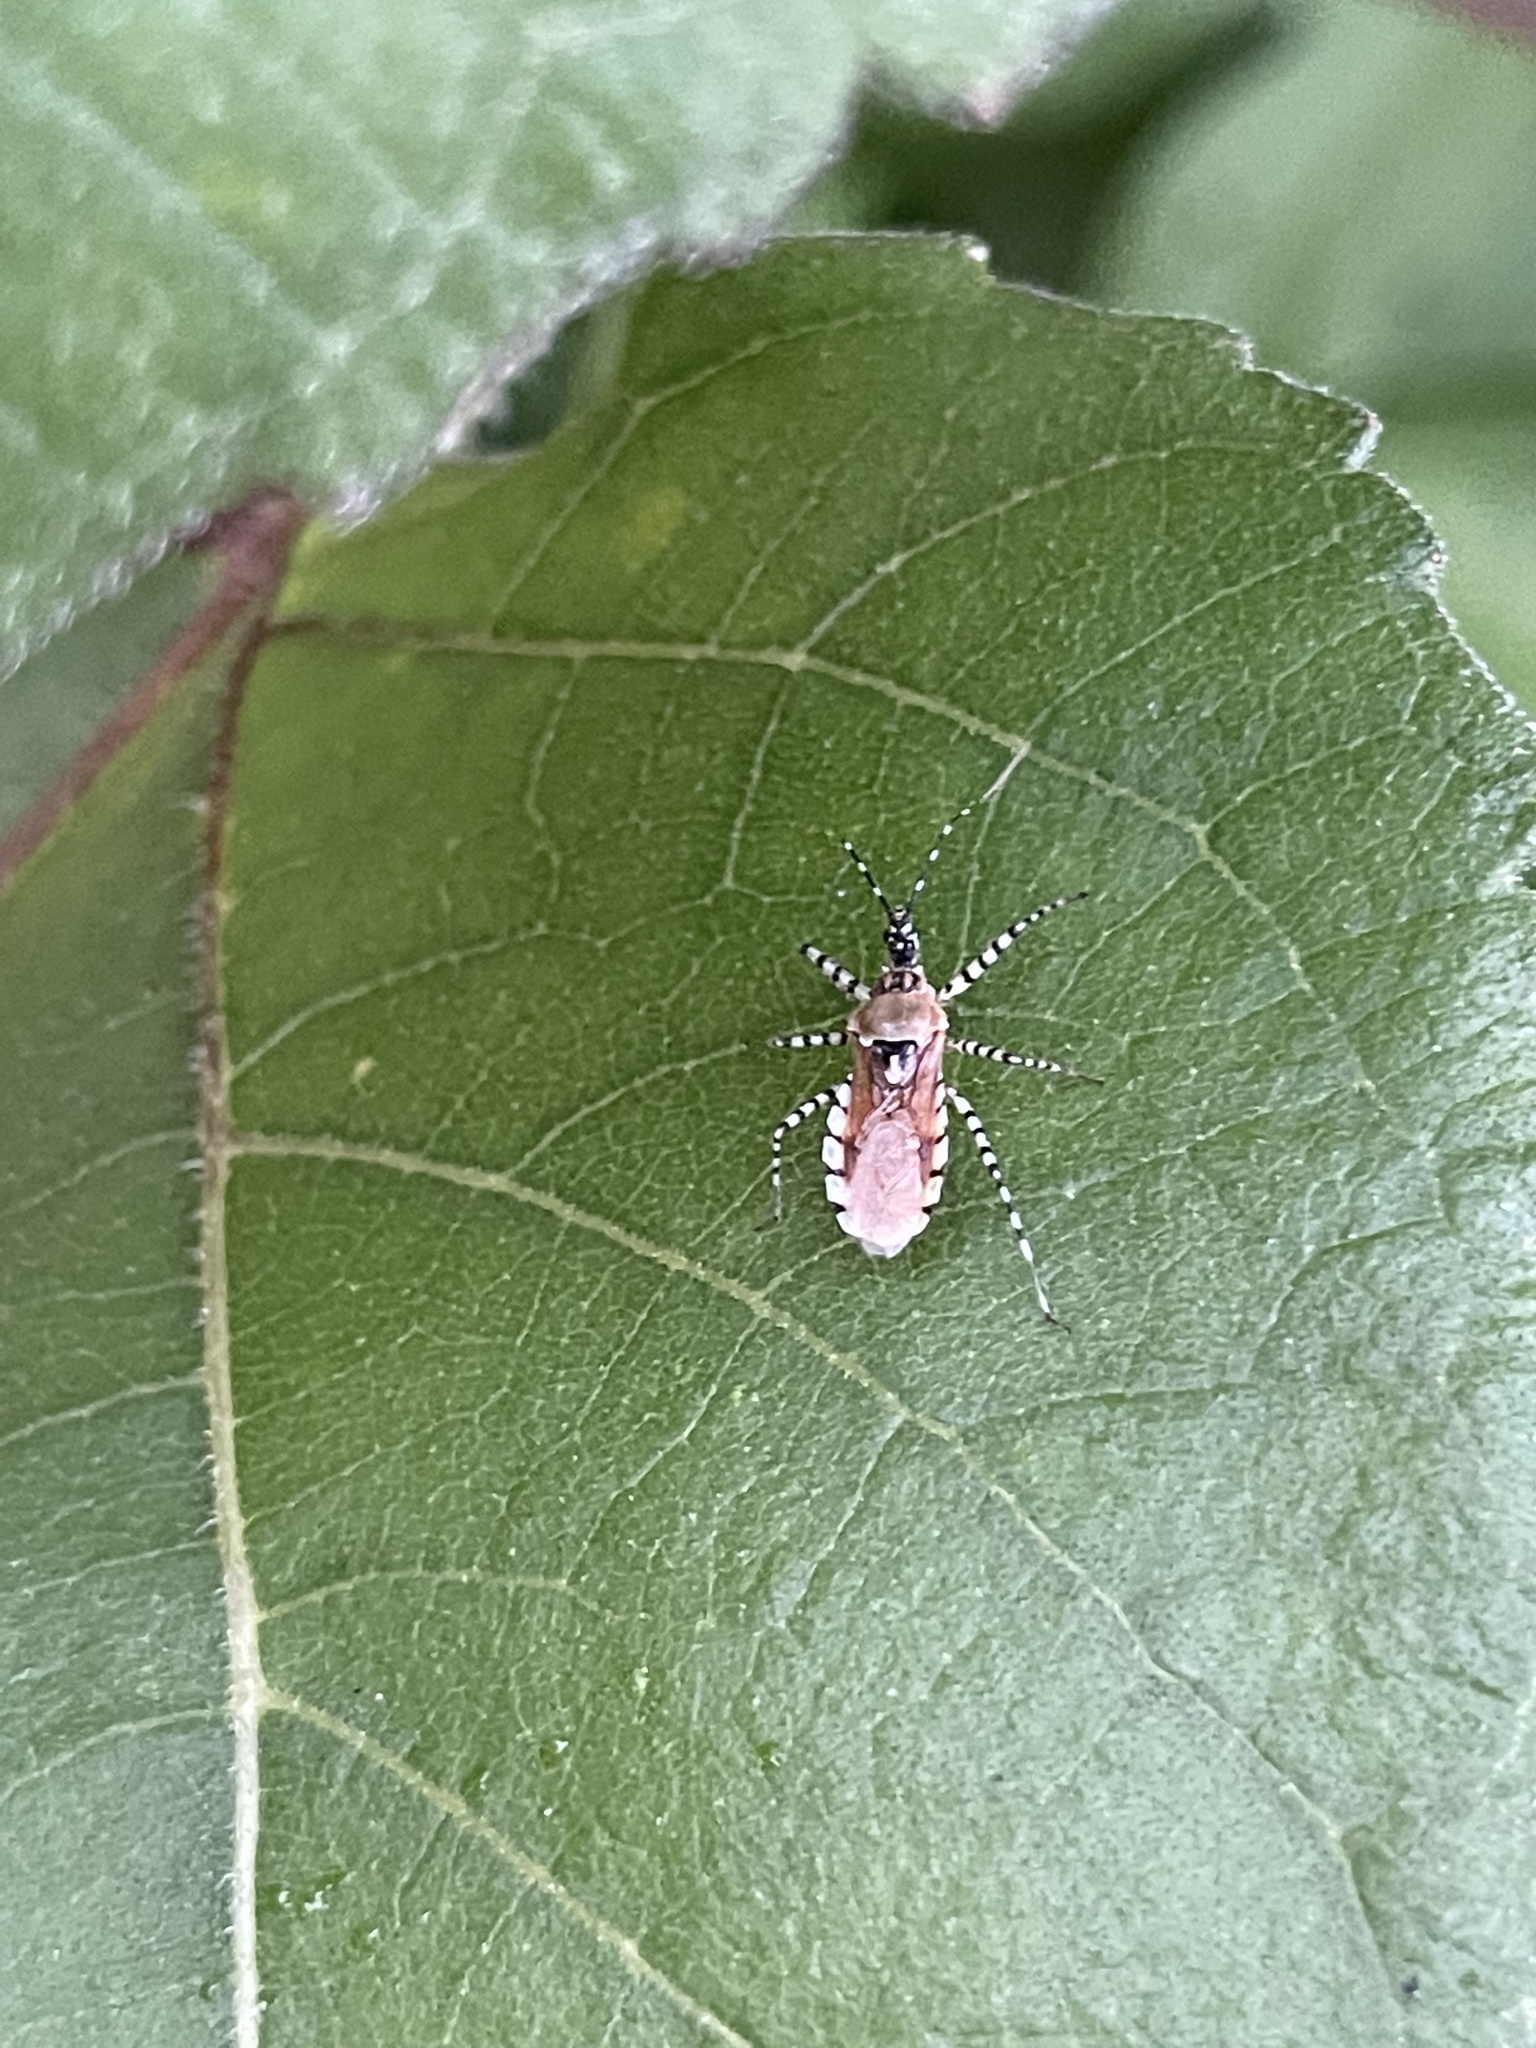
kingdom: Animalia
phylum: Arthropoda
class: Insecta
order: Hemiptera
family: Reduviidae
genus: Pselliopus
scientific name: Pselliopus cinctus
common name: Ringed assassin bug
